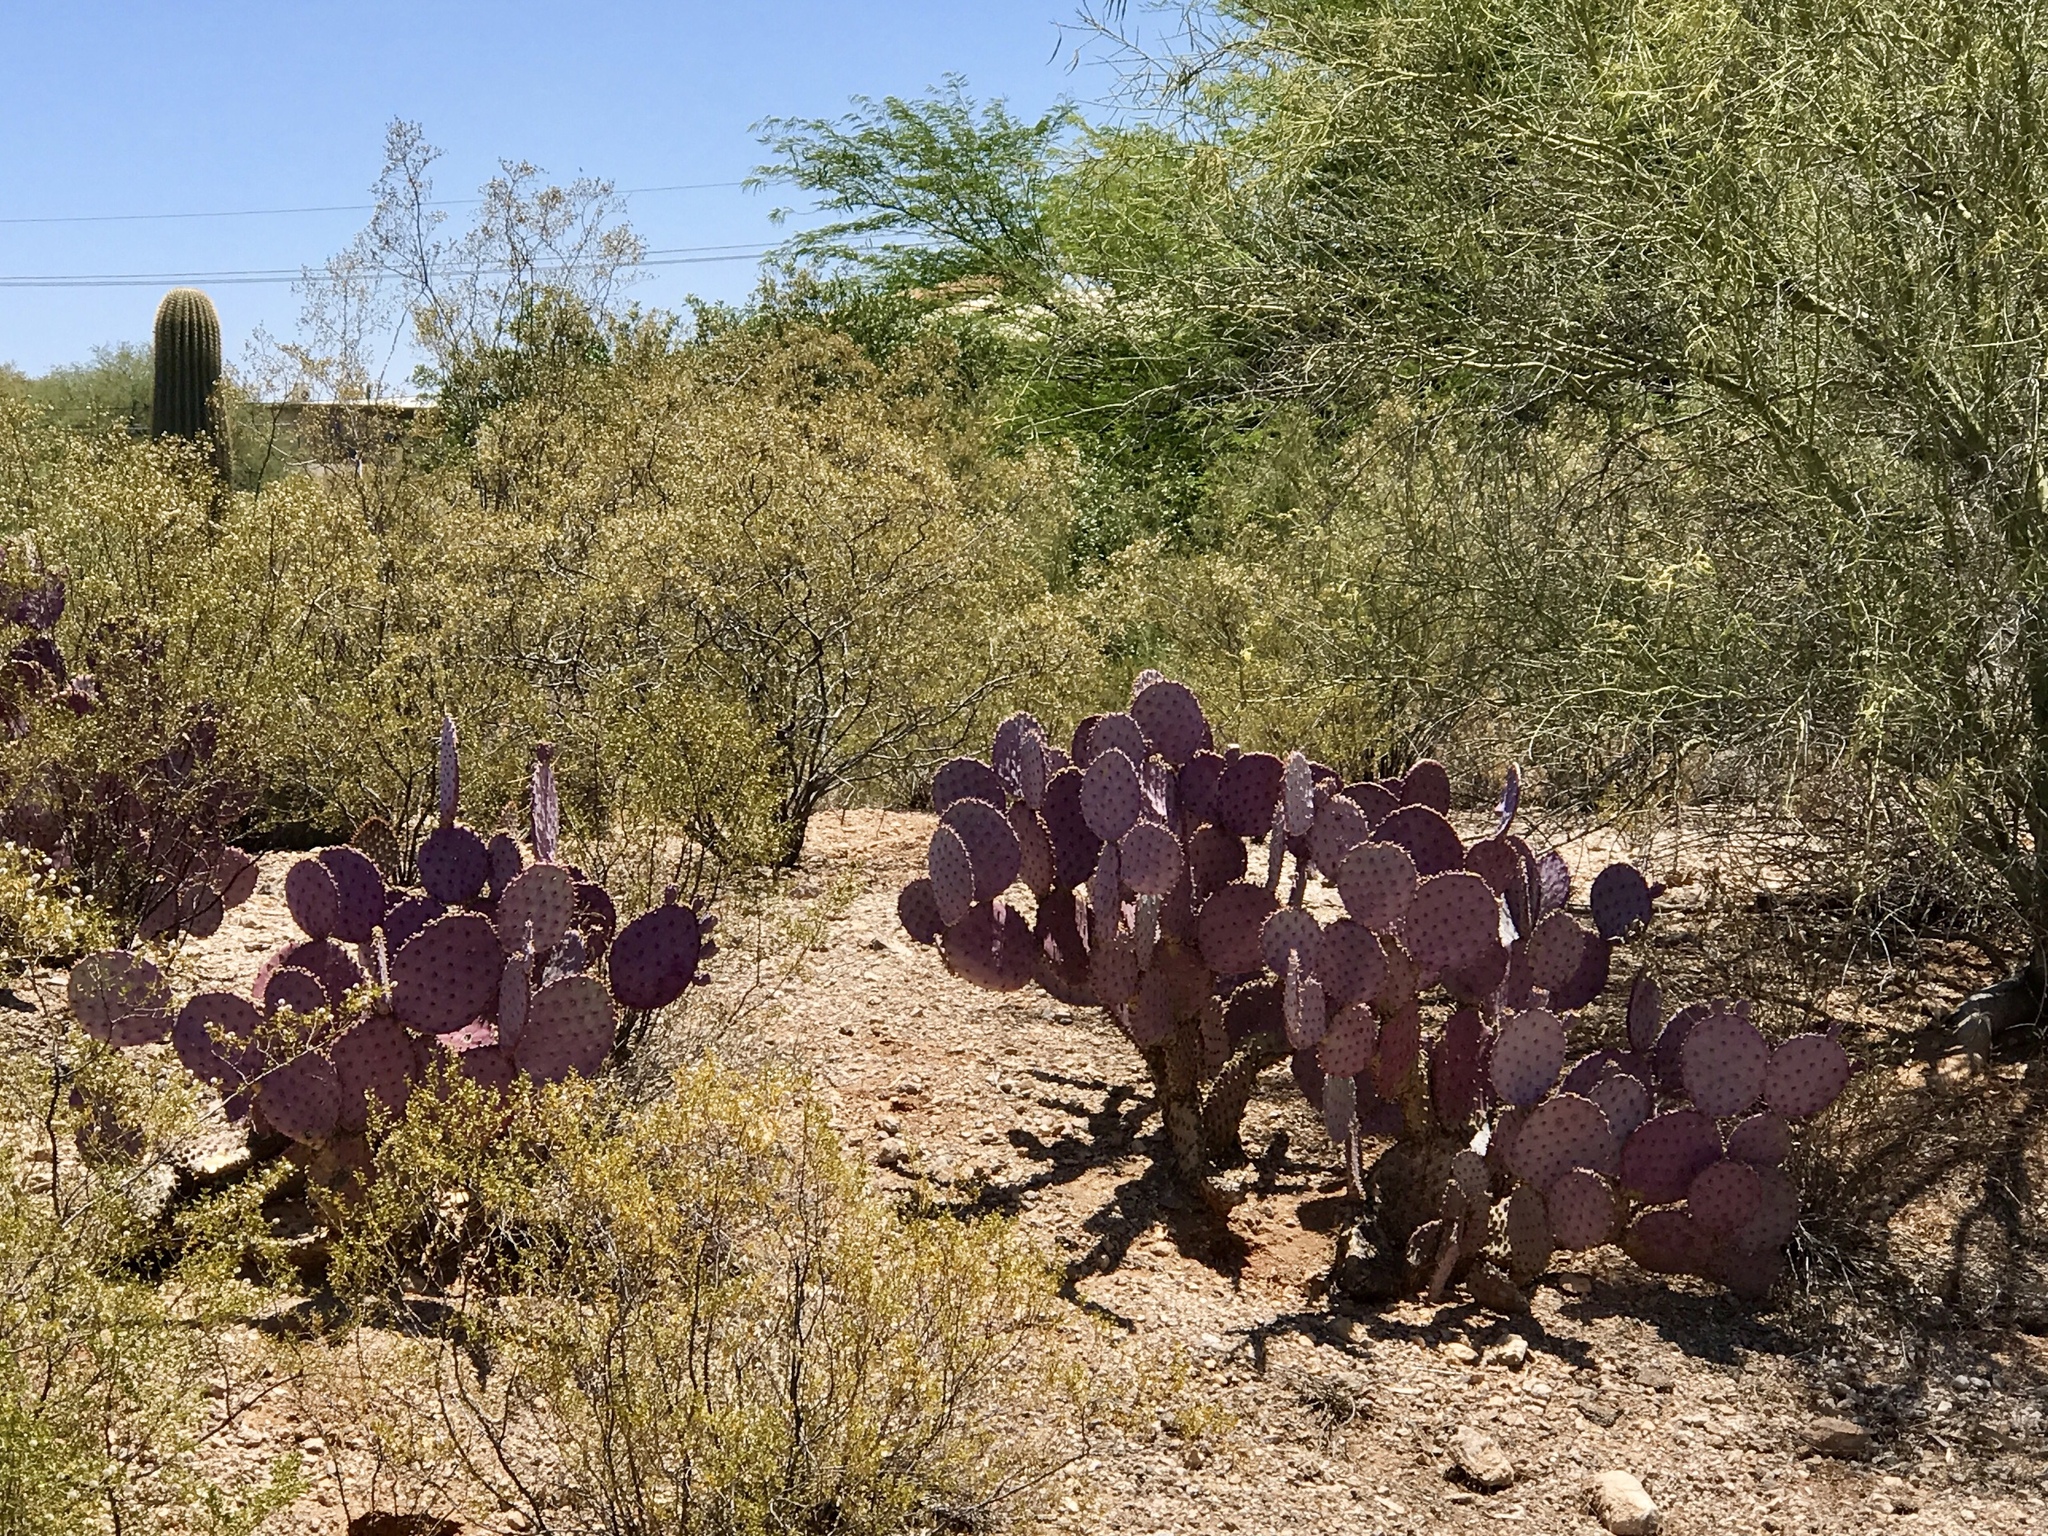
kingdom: Plantae
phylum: Tracheophyta
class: Magnoliopsida
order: Caryophyllales
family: Cactaceae
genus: Opuntia
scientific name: Opuntia gosseliniana
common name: Violet prickly-pear
